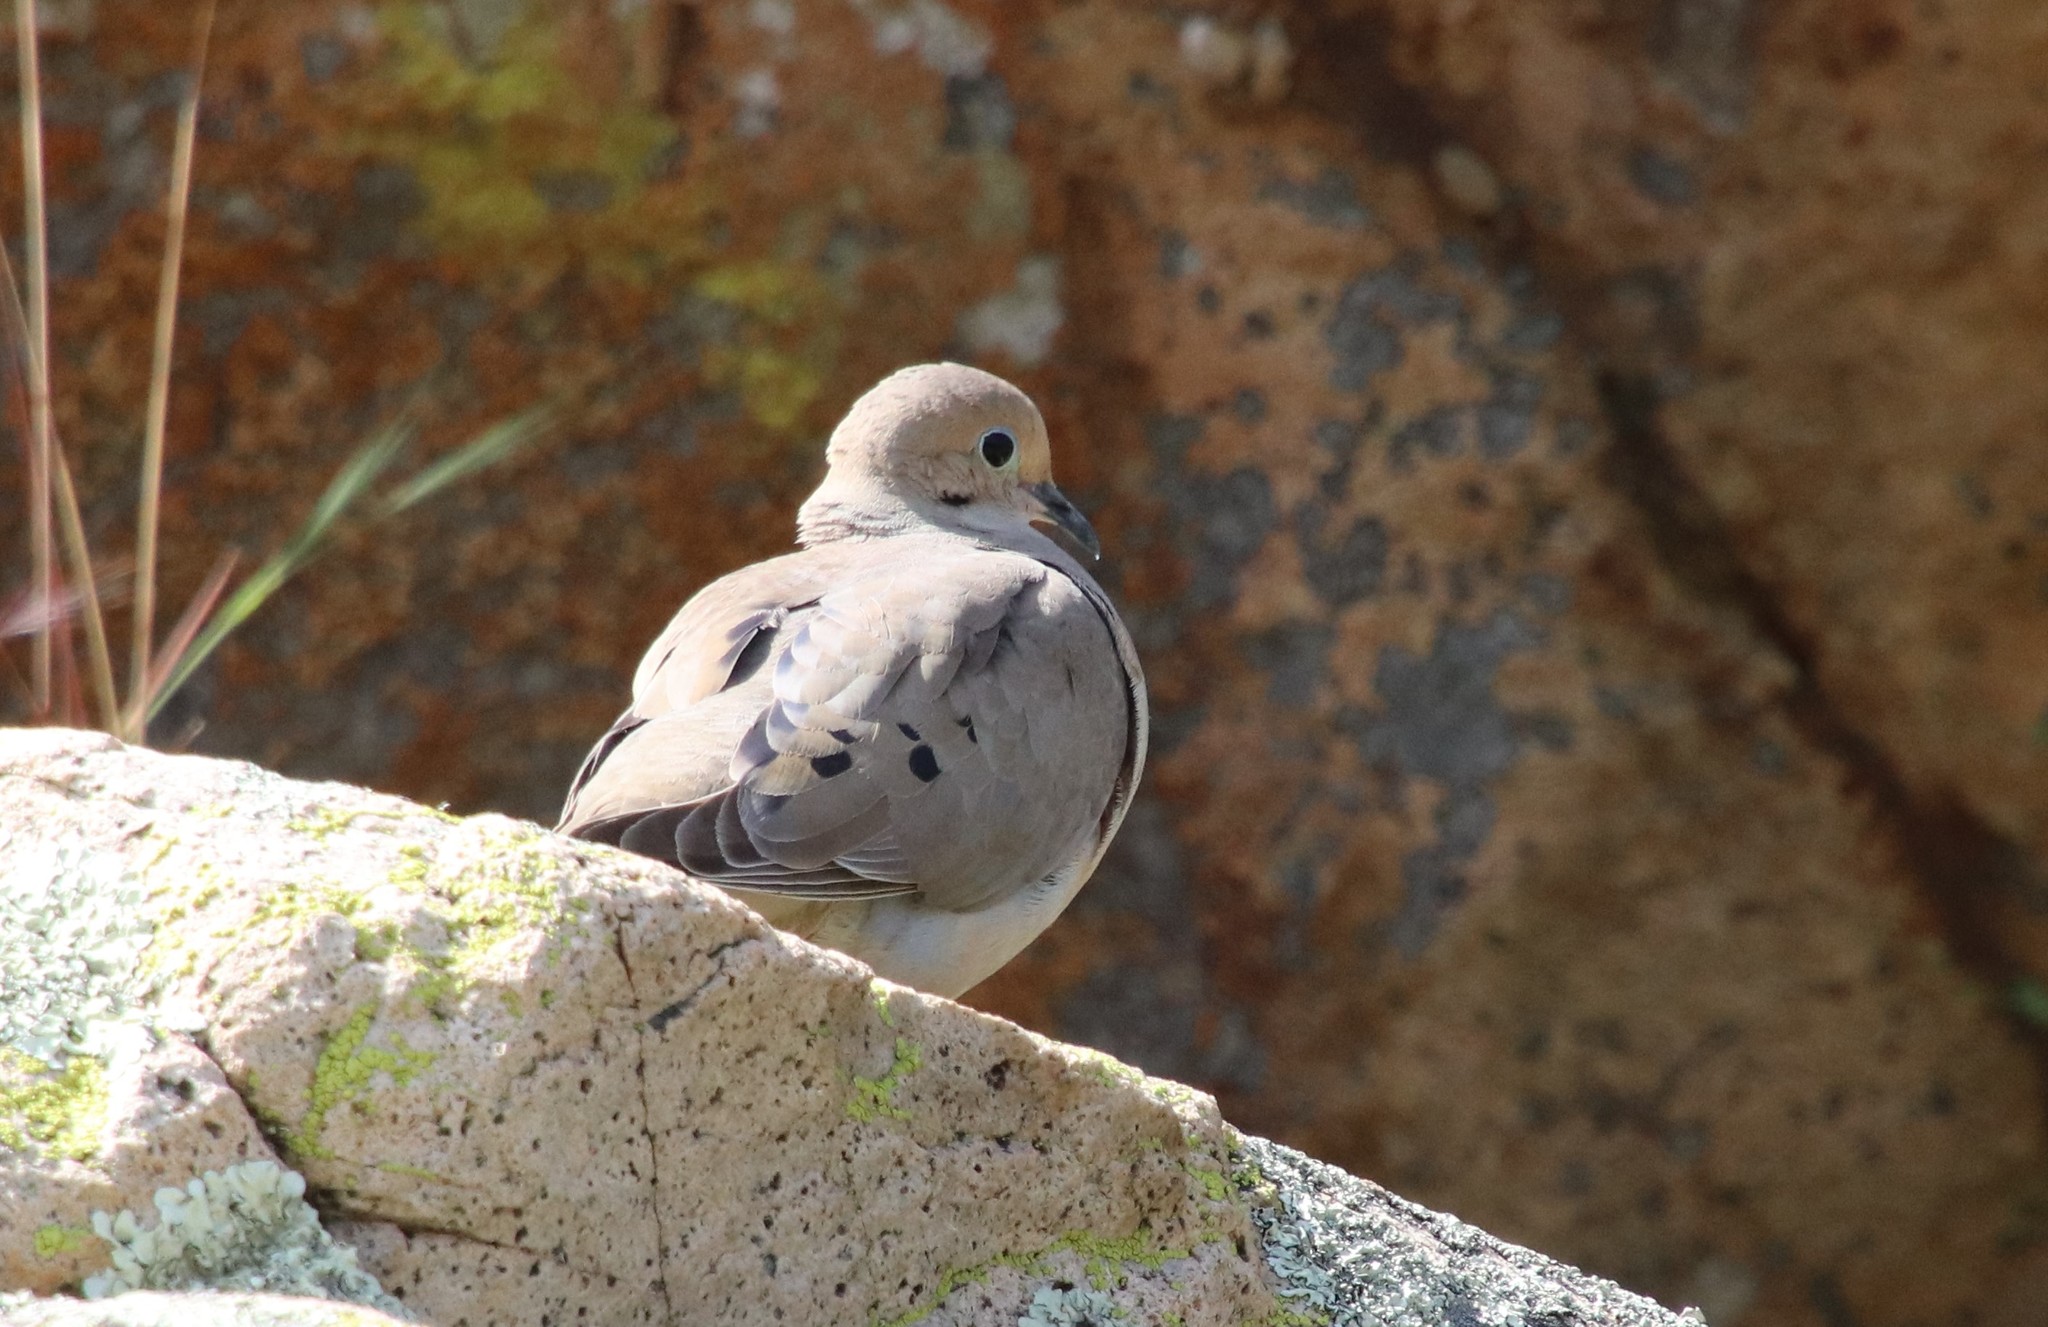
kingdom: Animalia
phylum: Chordata
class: Aves
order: Columbiformes
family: Columbidae
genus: Zenaida
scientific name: Zenaida macroura
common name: Mourning dove
